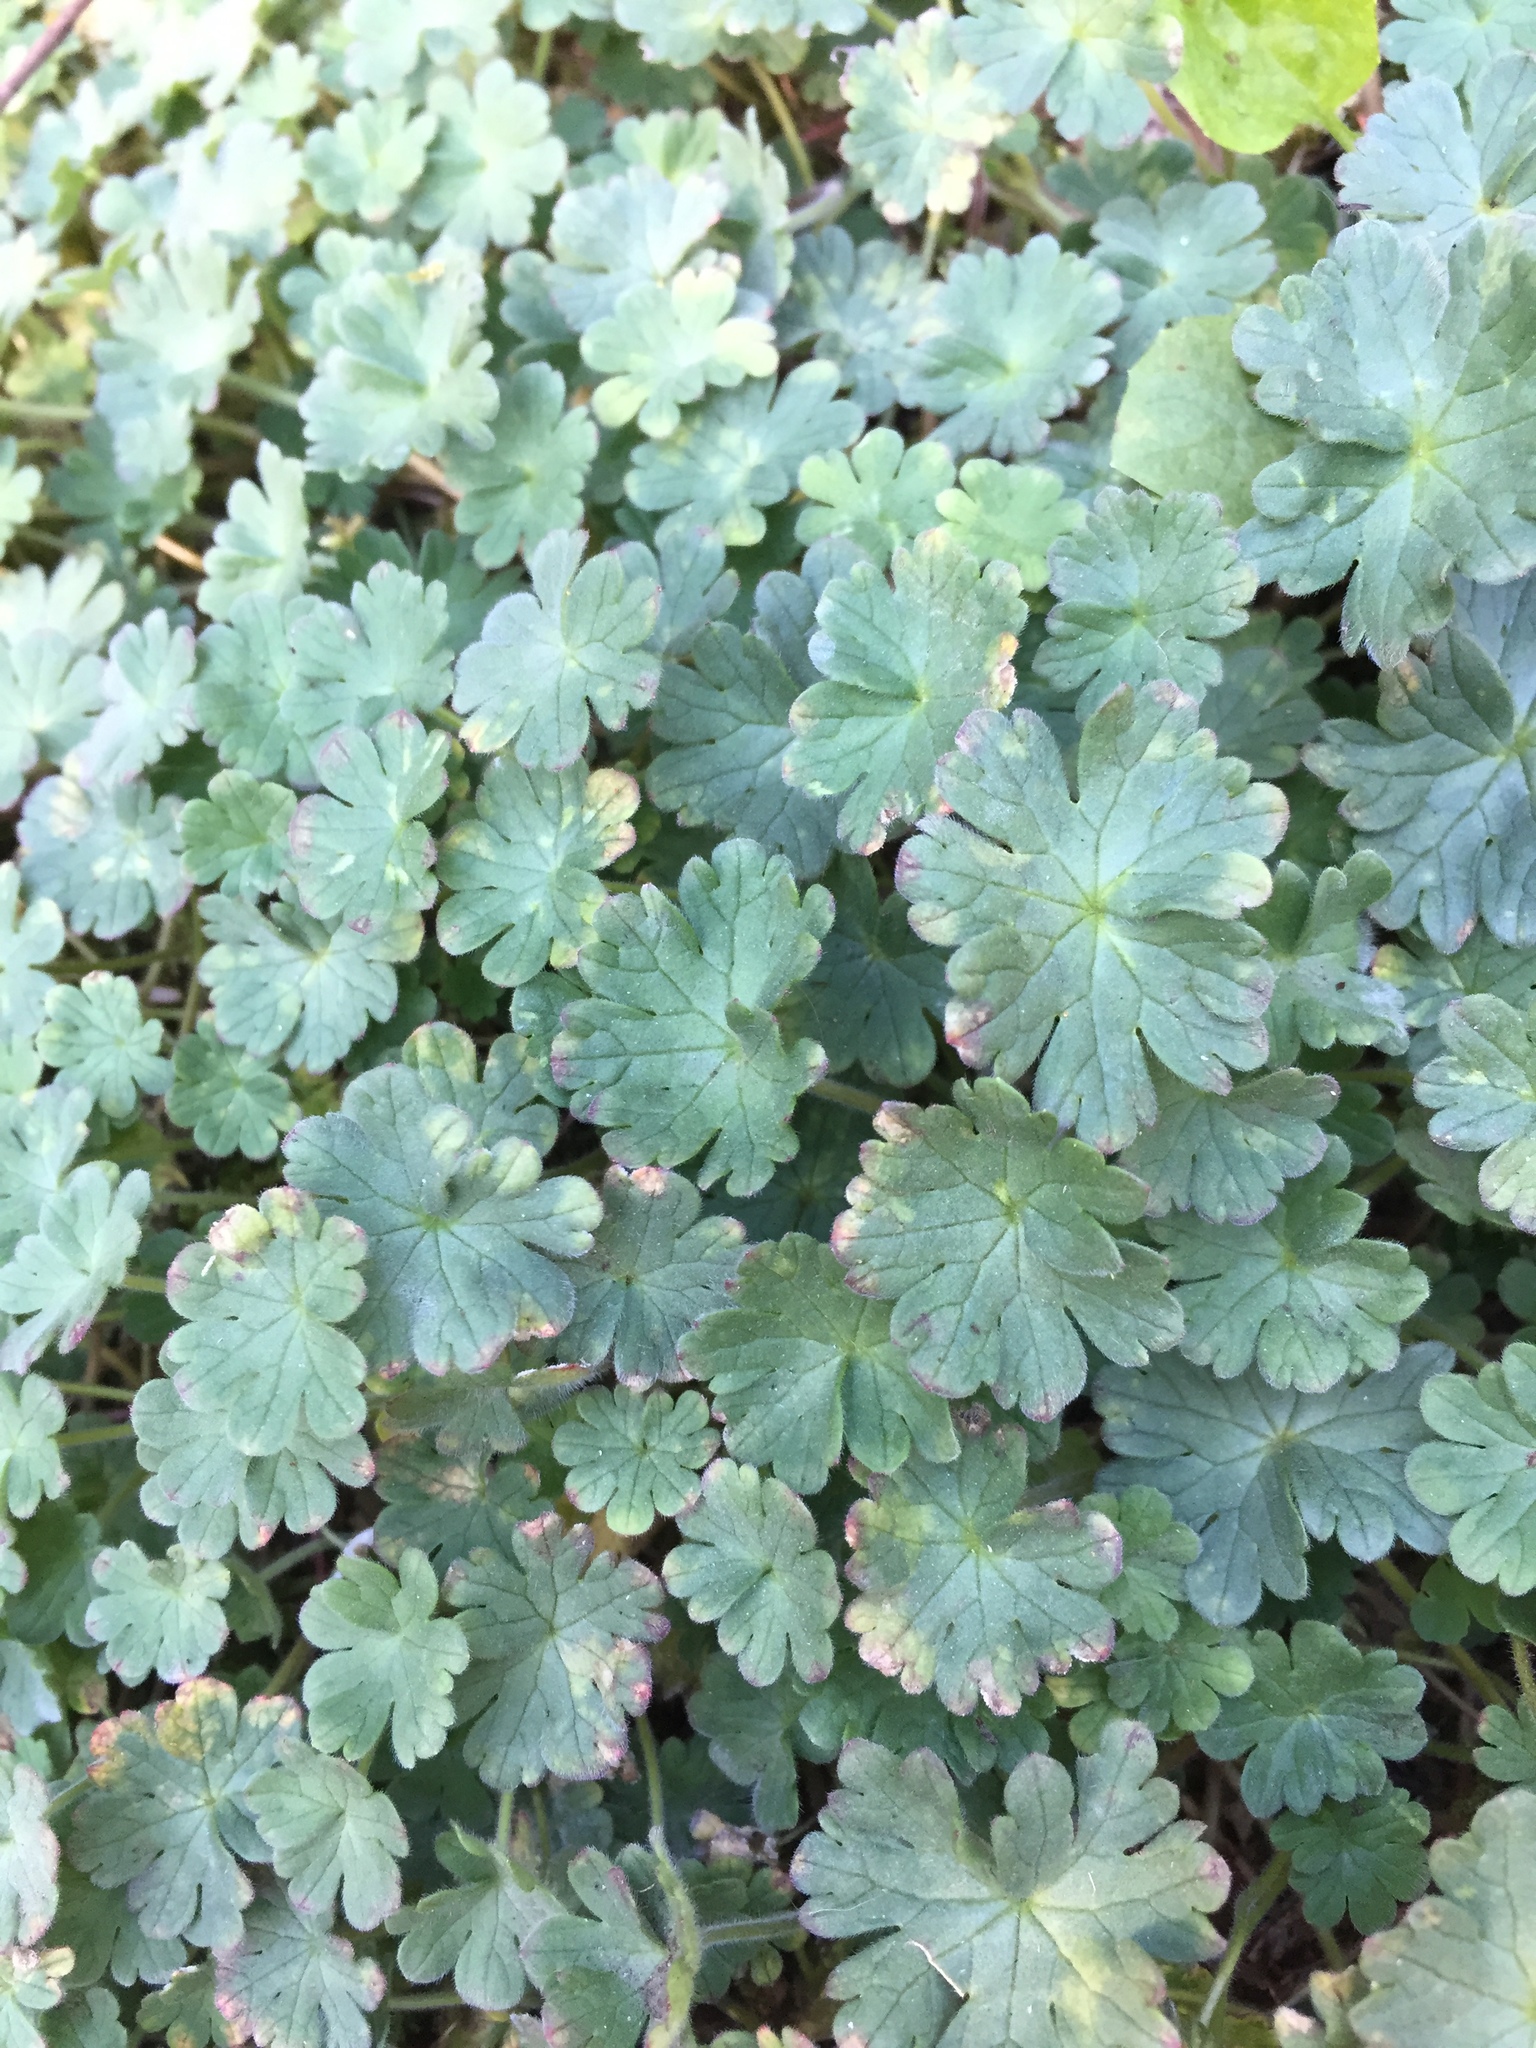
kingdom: Plantae
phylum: Tracheophyta
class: Magnoliopsida
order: Geraniales
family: Geraniaceae
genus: Geranium
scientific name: Geranium molle
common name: Dove's-foot crane's-bill
